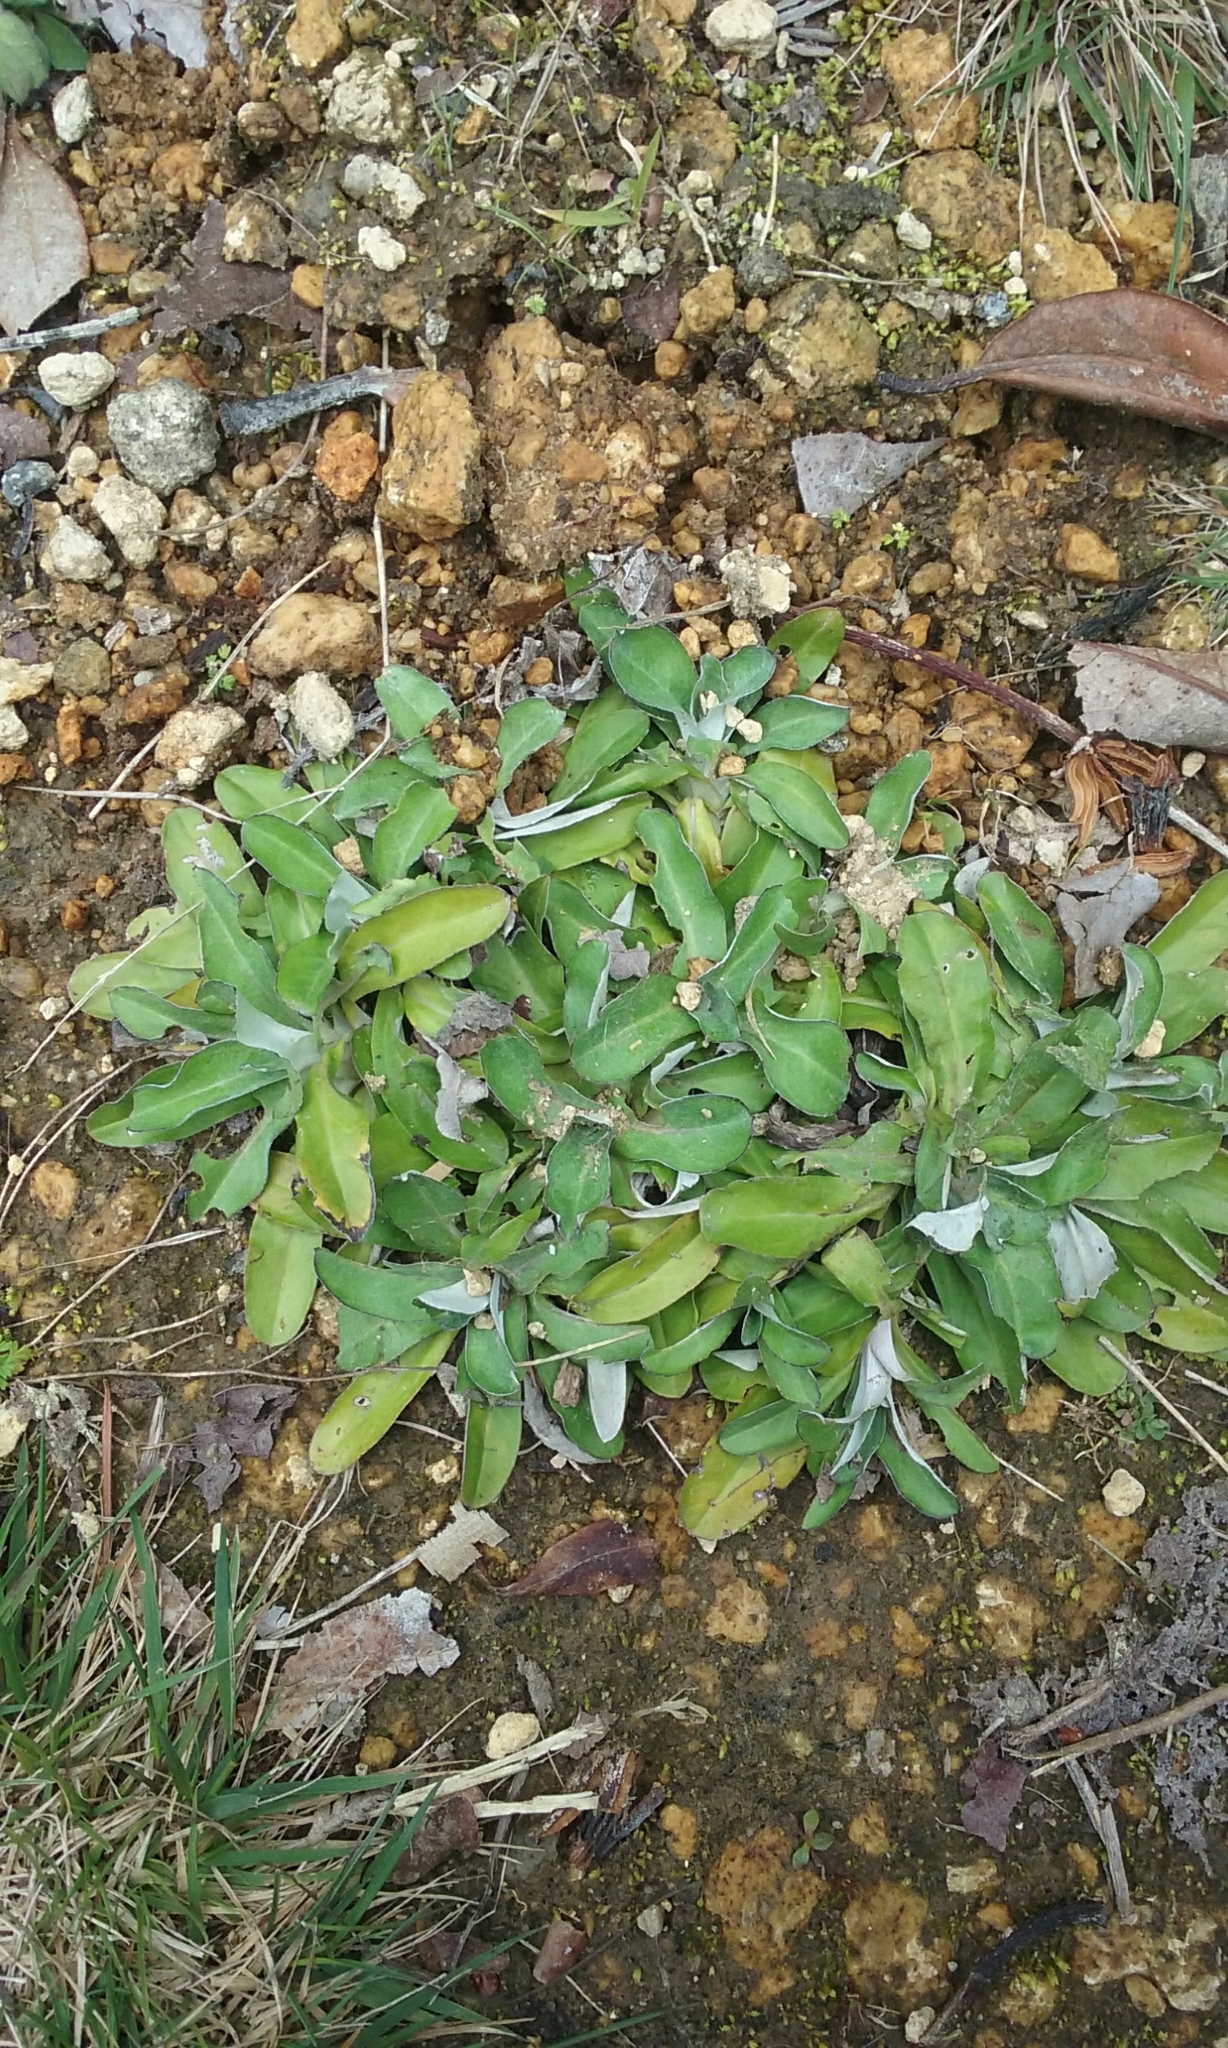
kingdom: Plantae
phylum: Tracheophyta
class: Magnoliopsida
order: Asterales
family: Asteraceae
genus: Gamochaeta
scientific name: Gamochaeta americana
